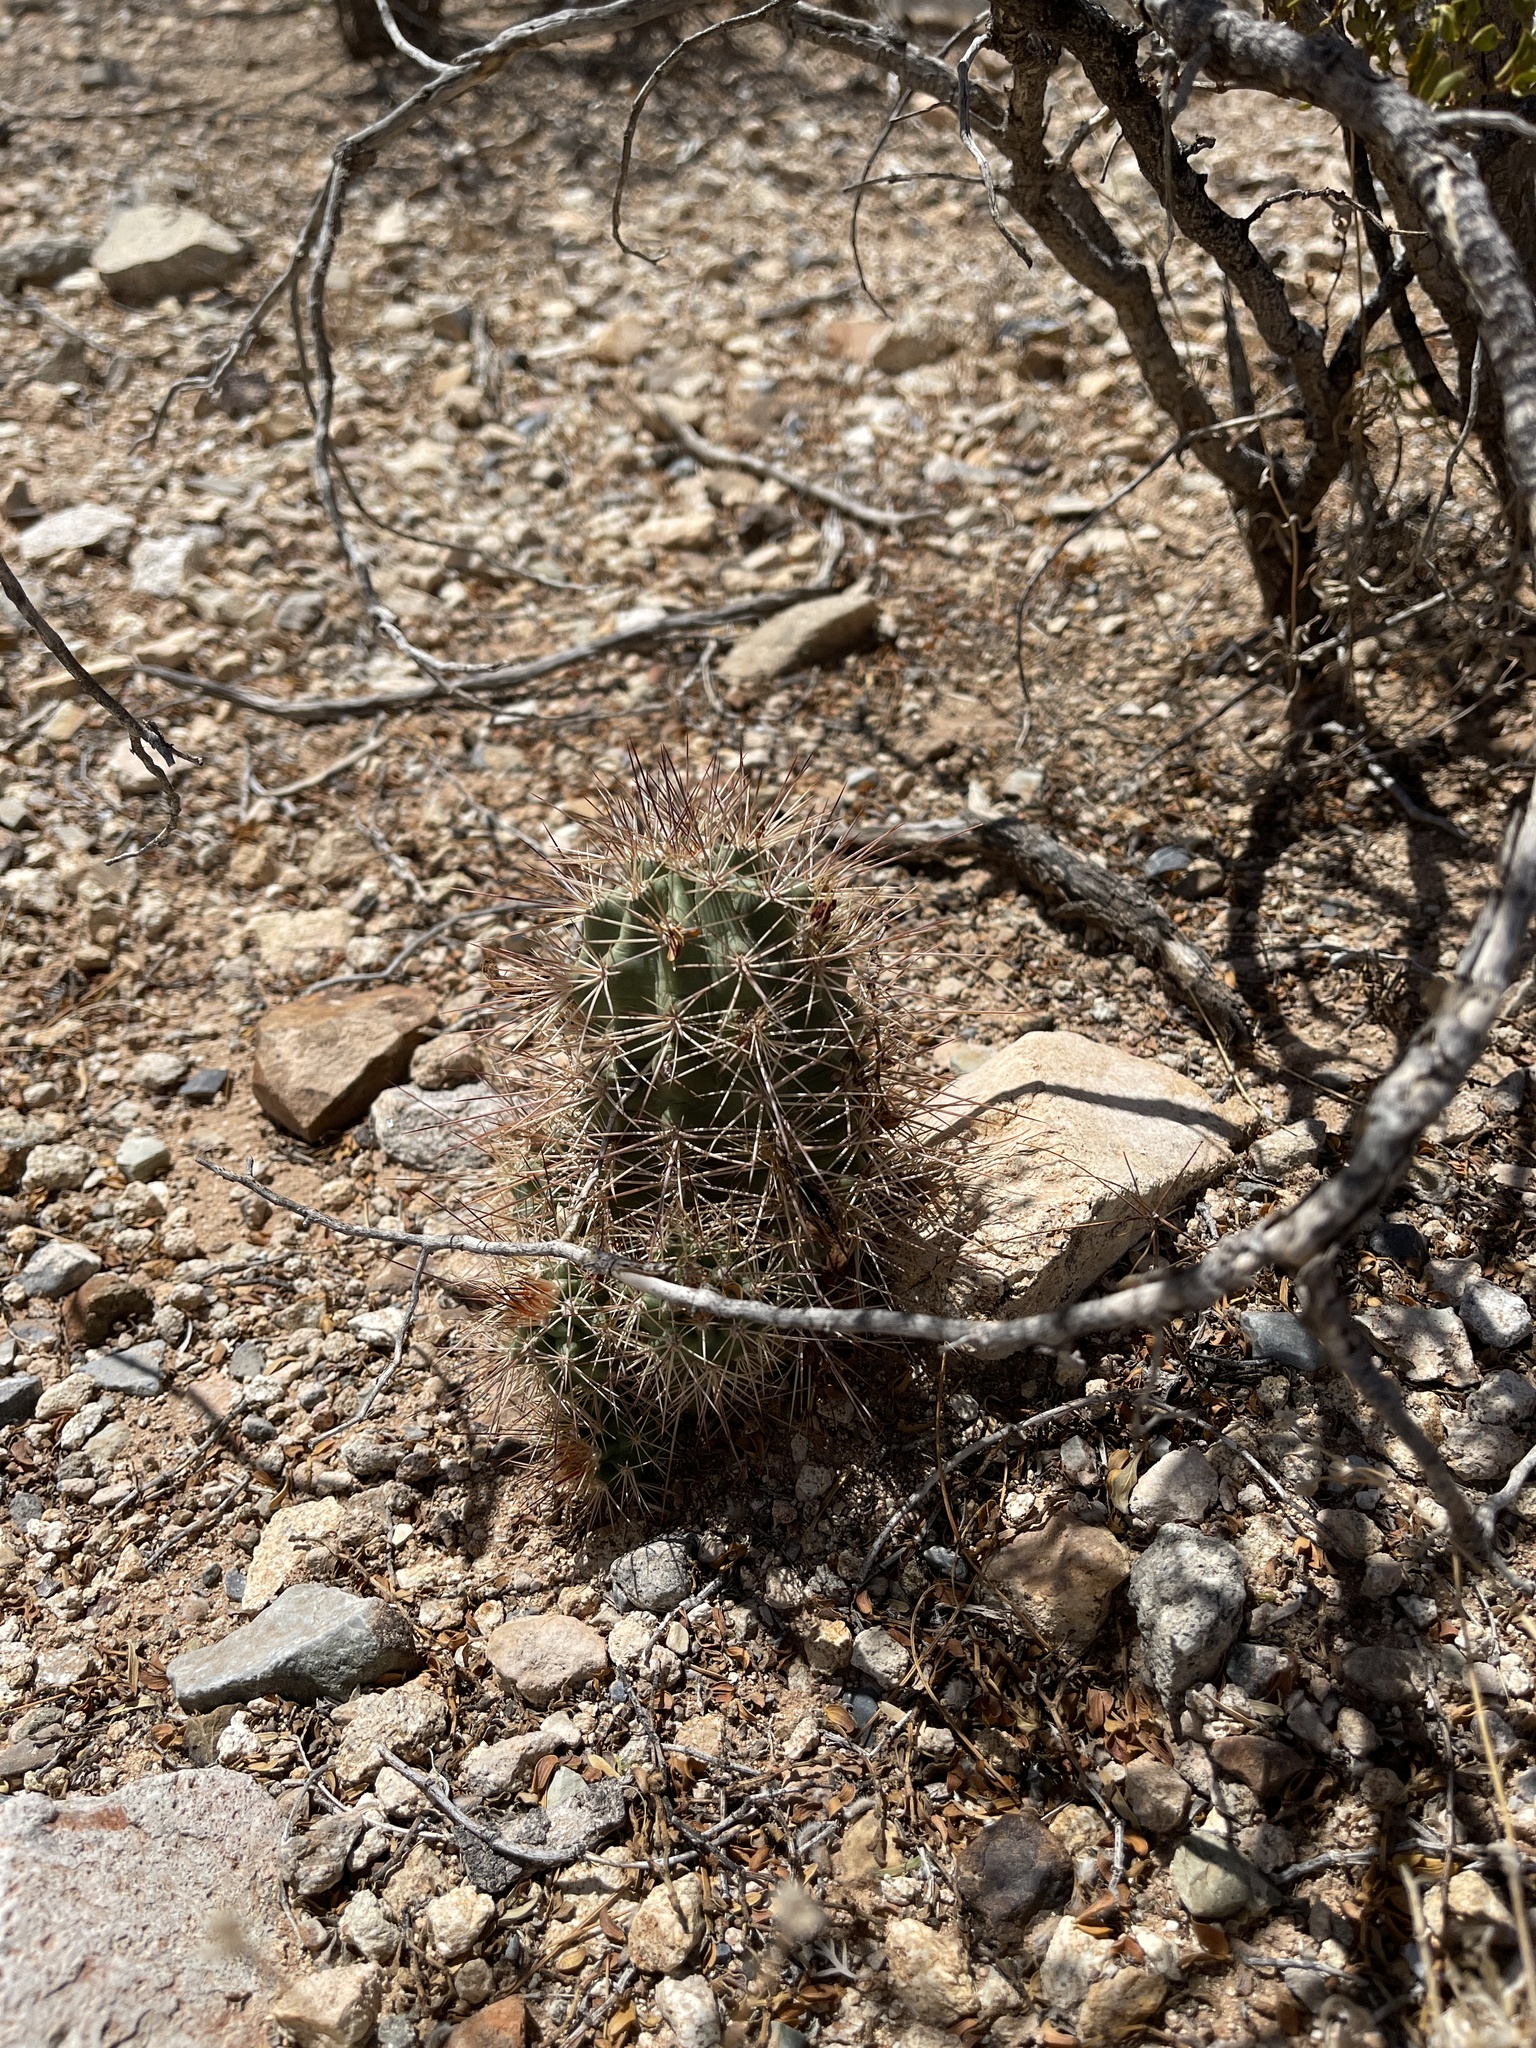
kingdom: Plantae
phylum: Tracheophyta
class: Magnoliopsida
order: Caryophyllales
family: Cactaceae
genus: Echinocereus
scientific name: Echinocereus coccineus
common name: Scarlet hedgehog cactus
